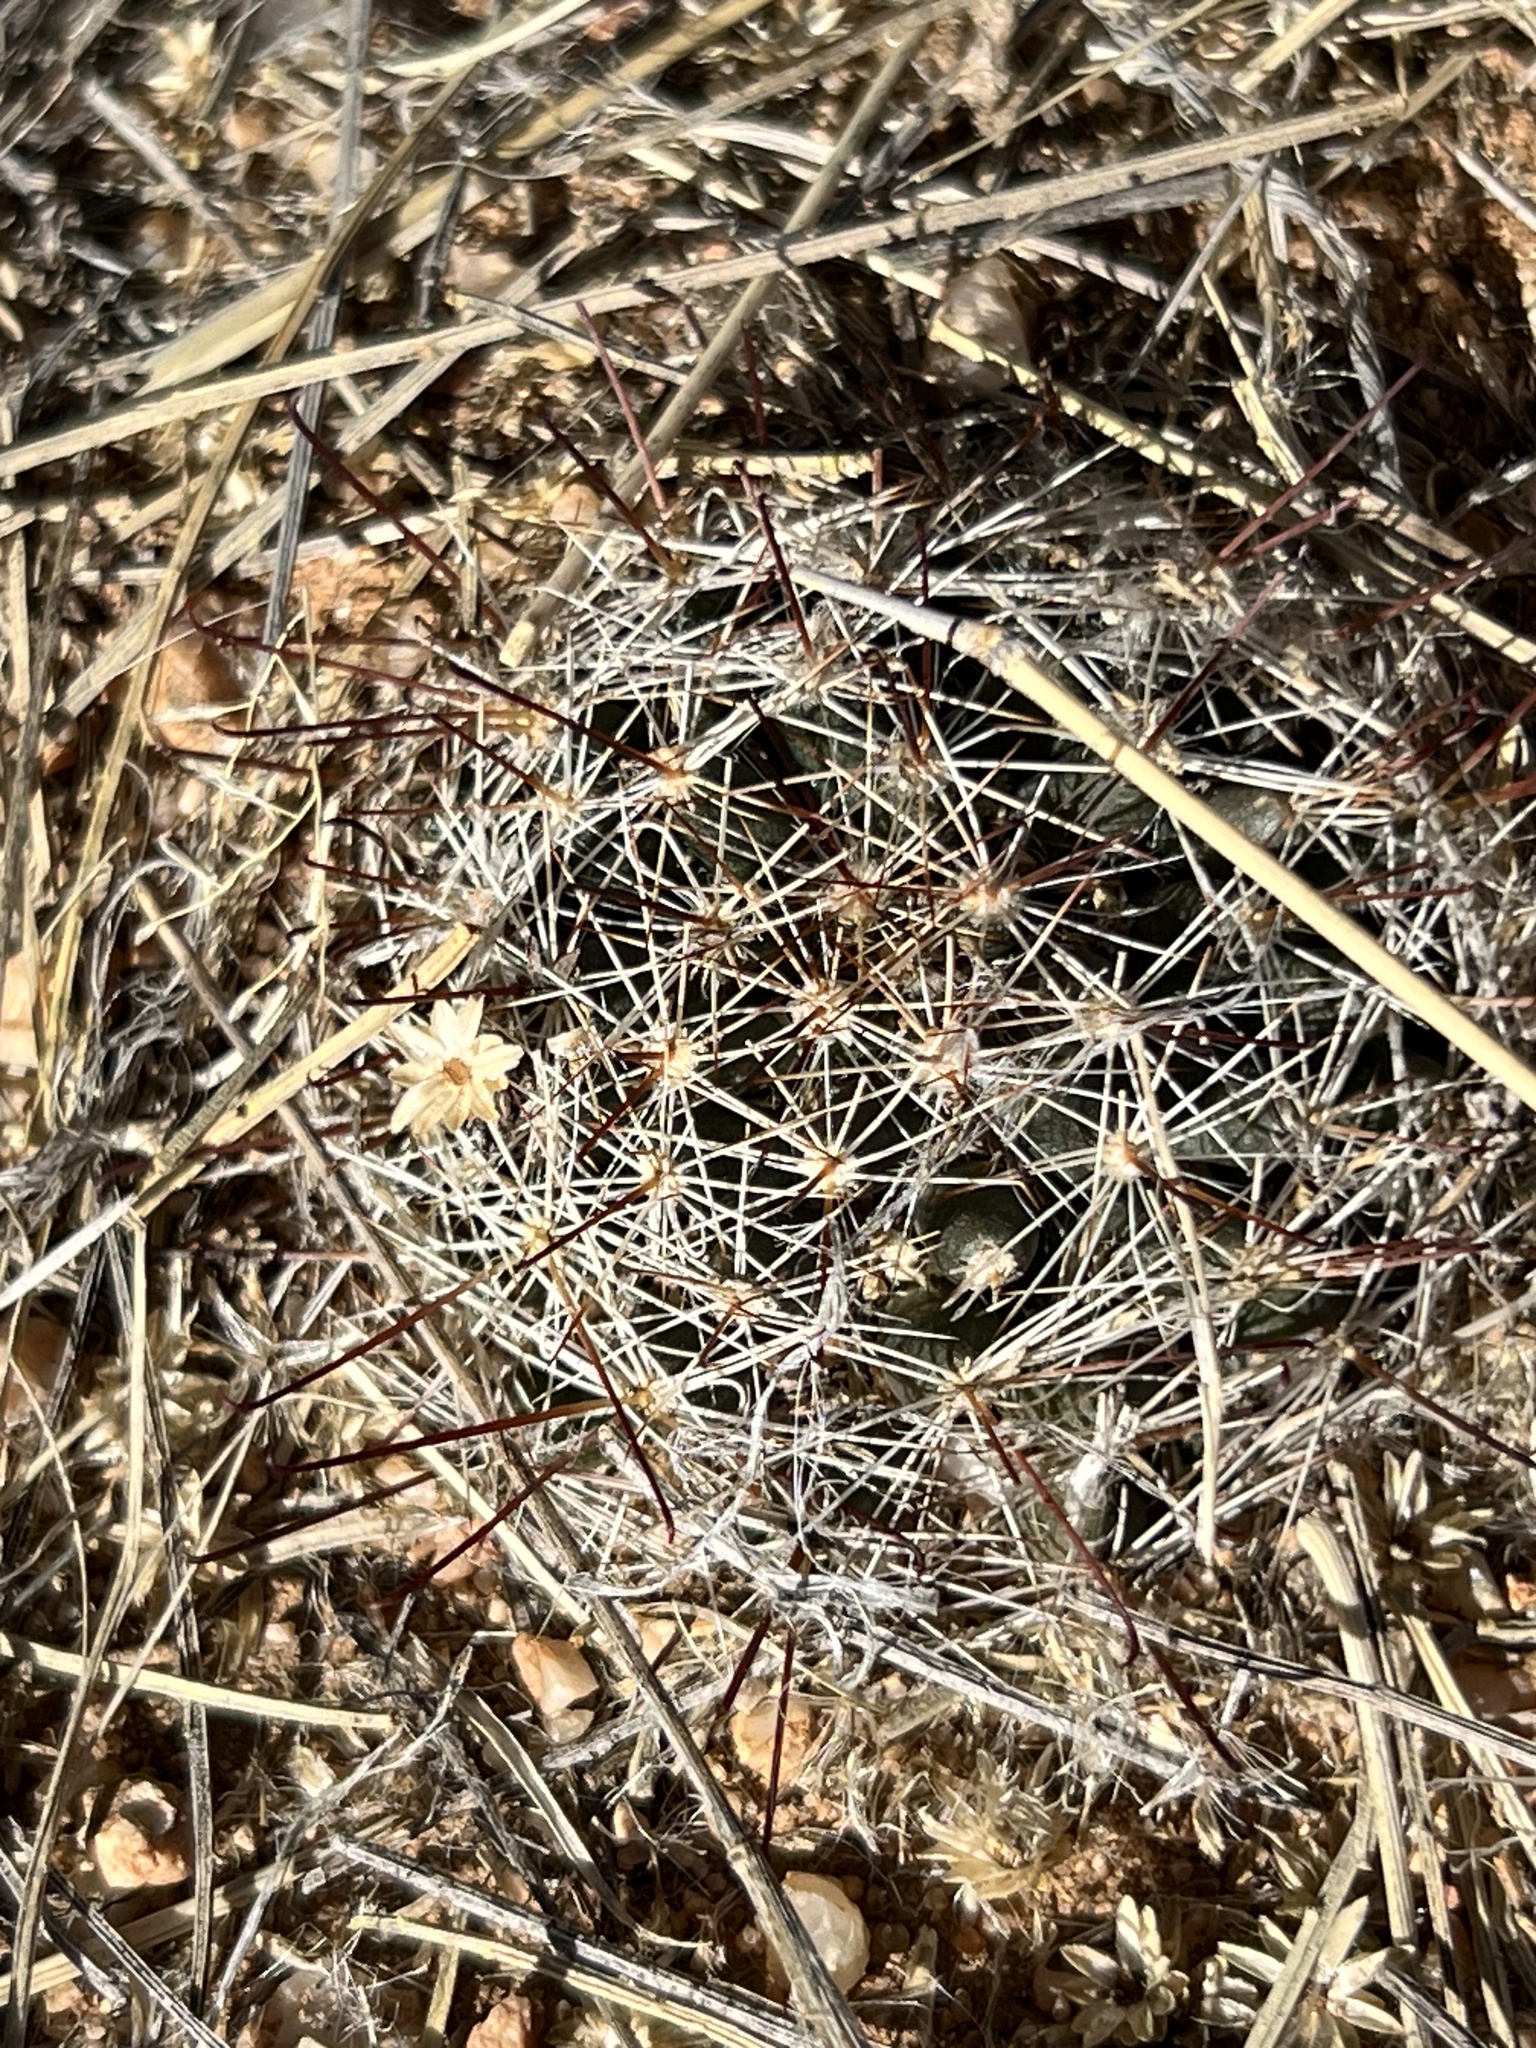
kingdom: Plantae
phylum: Tracheophyta
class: Magnoliopsida
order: Caryophyllales
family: Cactaceae
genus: Cochemiea
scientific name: Cochemiea wrightii
